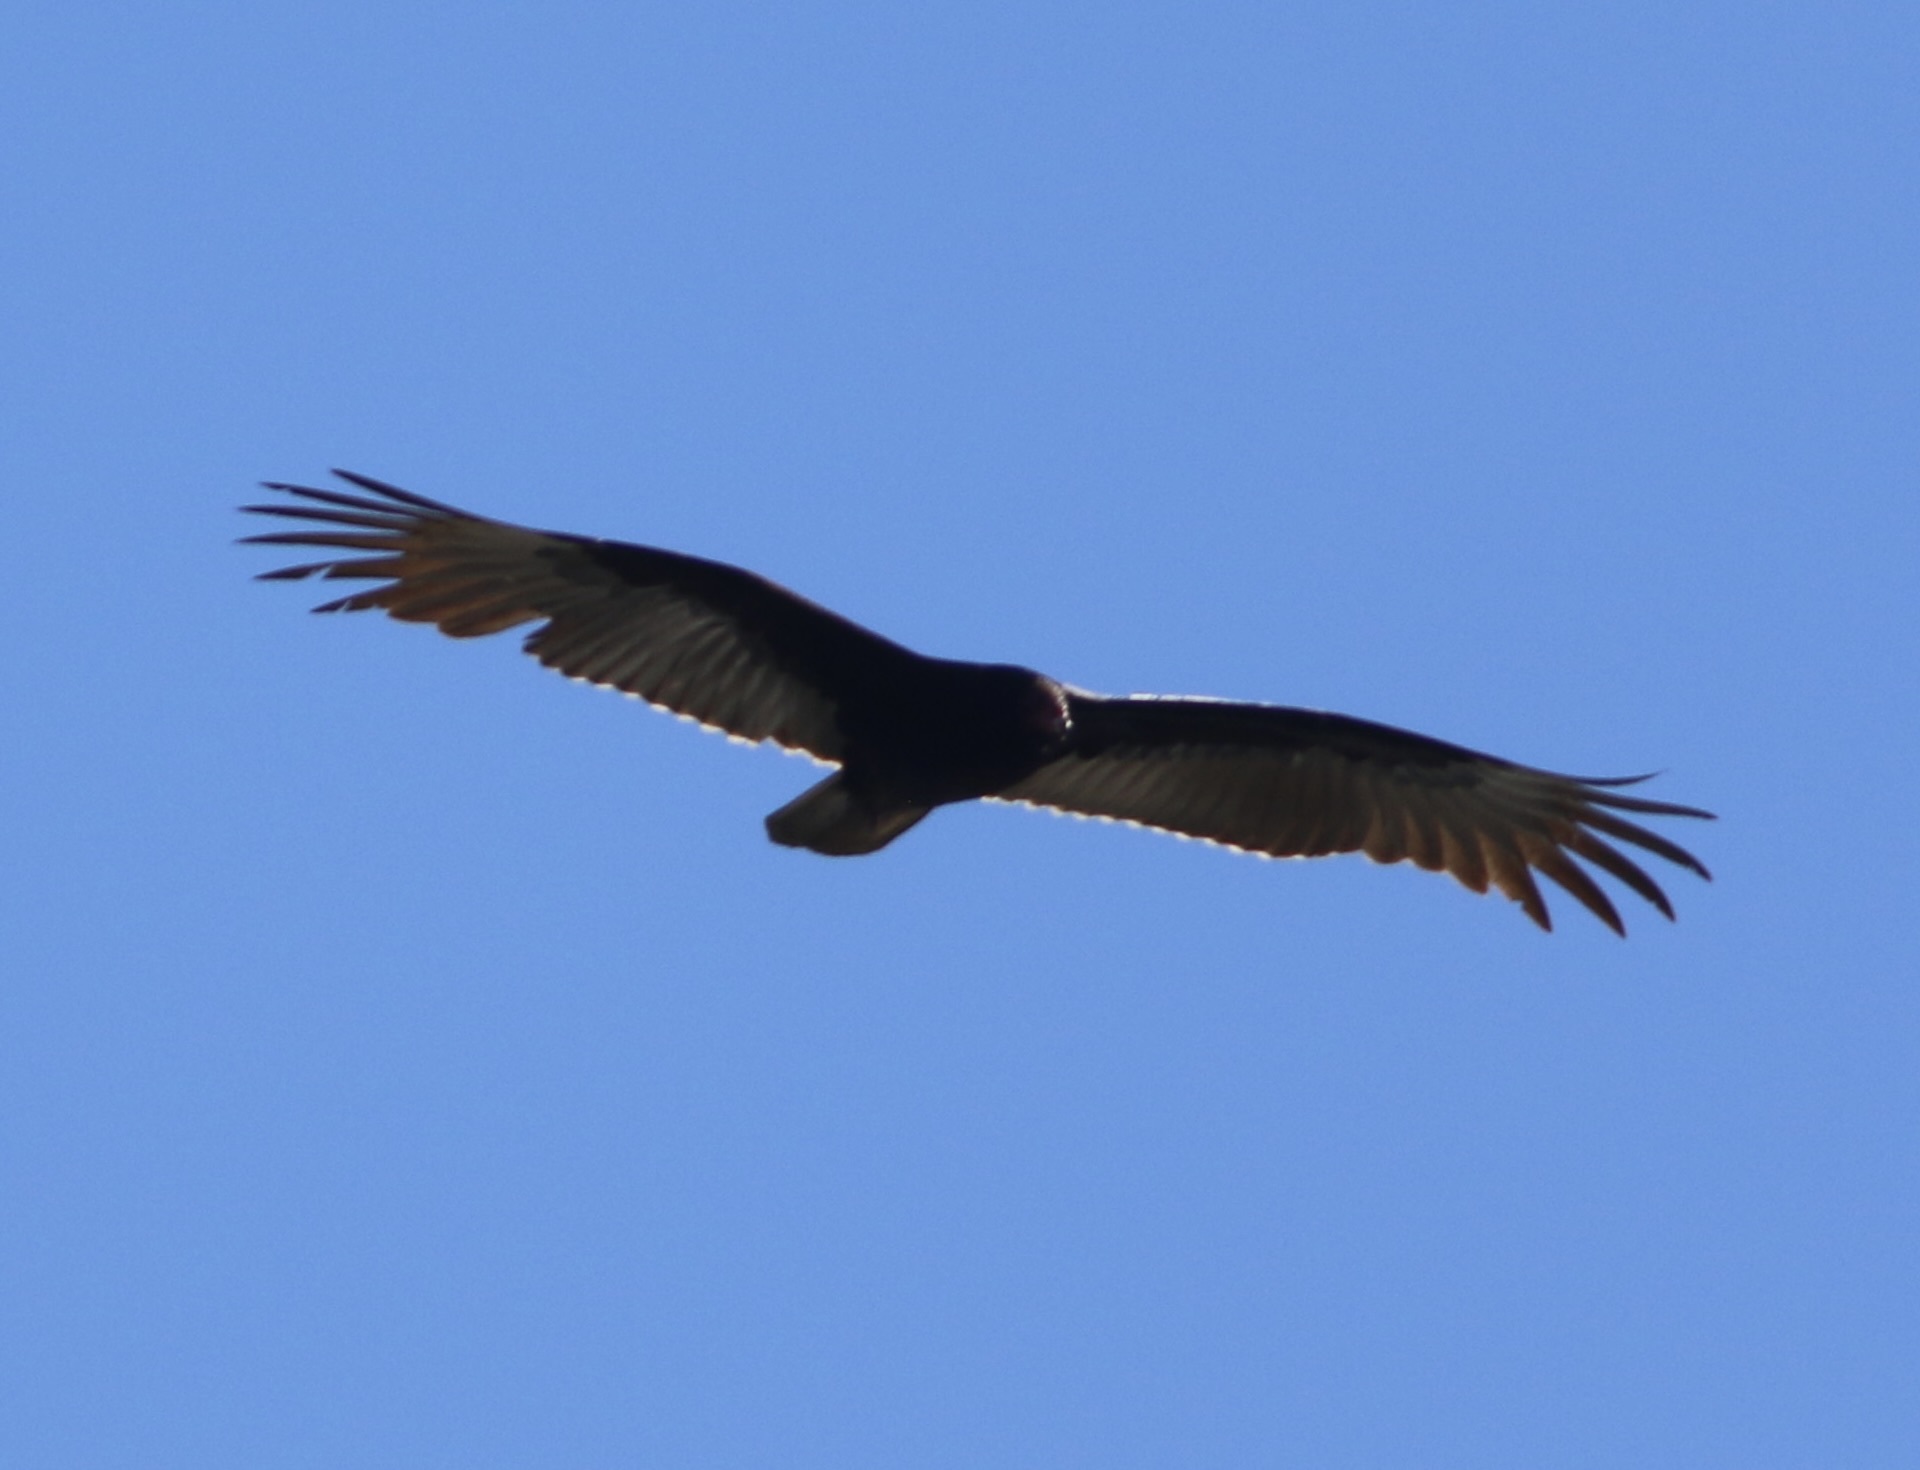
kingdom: Animalia
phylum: Chordata
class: Aves
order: Accipitriformes
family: Cathartidae
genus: Cathartes
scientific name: Cathartes aura
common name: Turkey vulture
